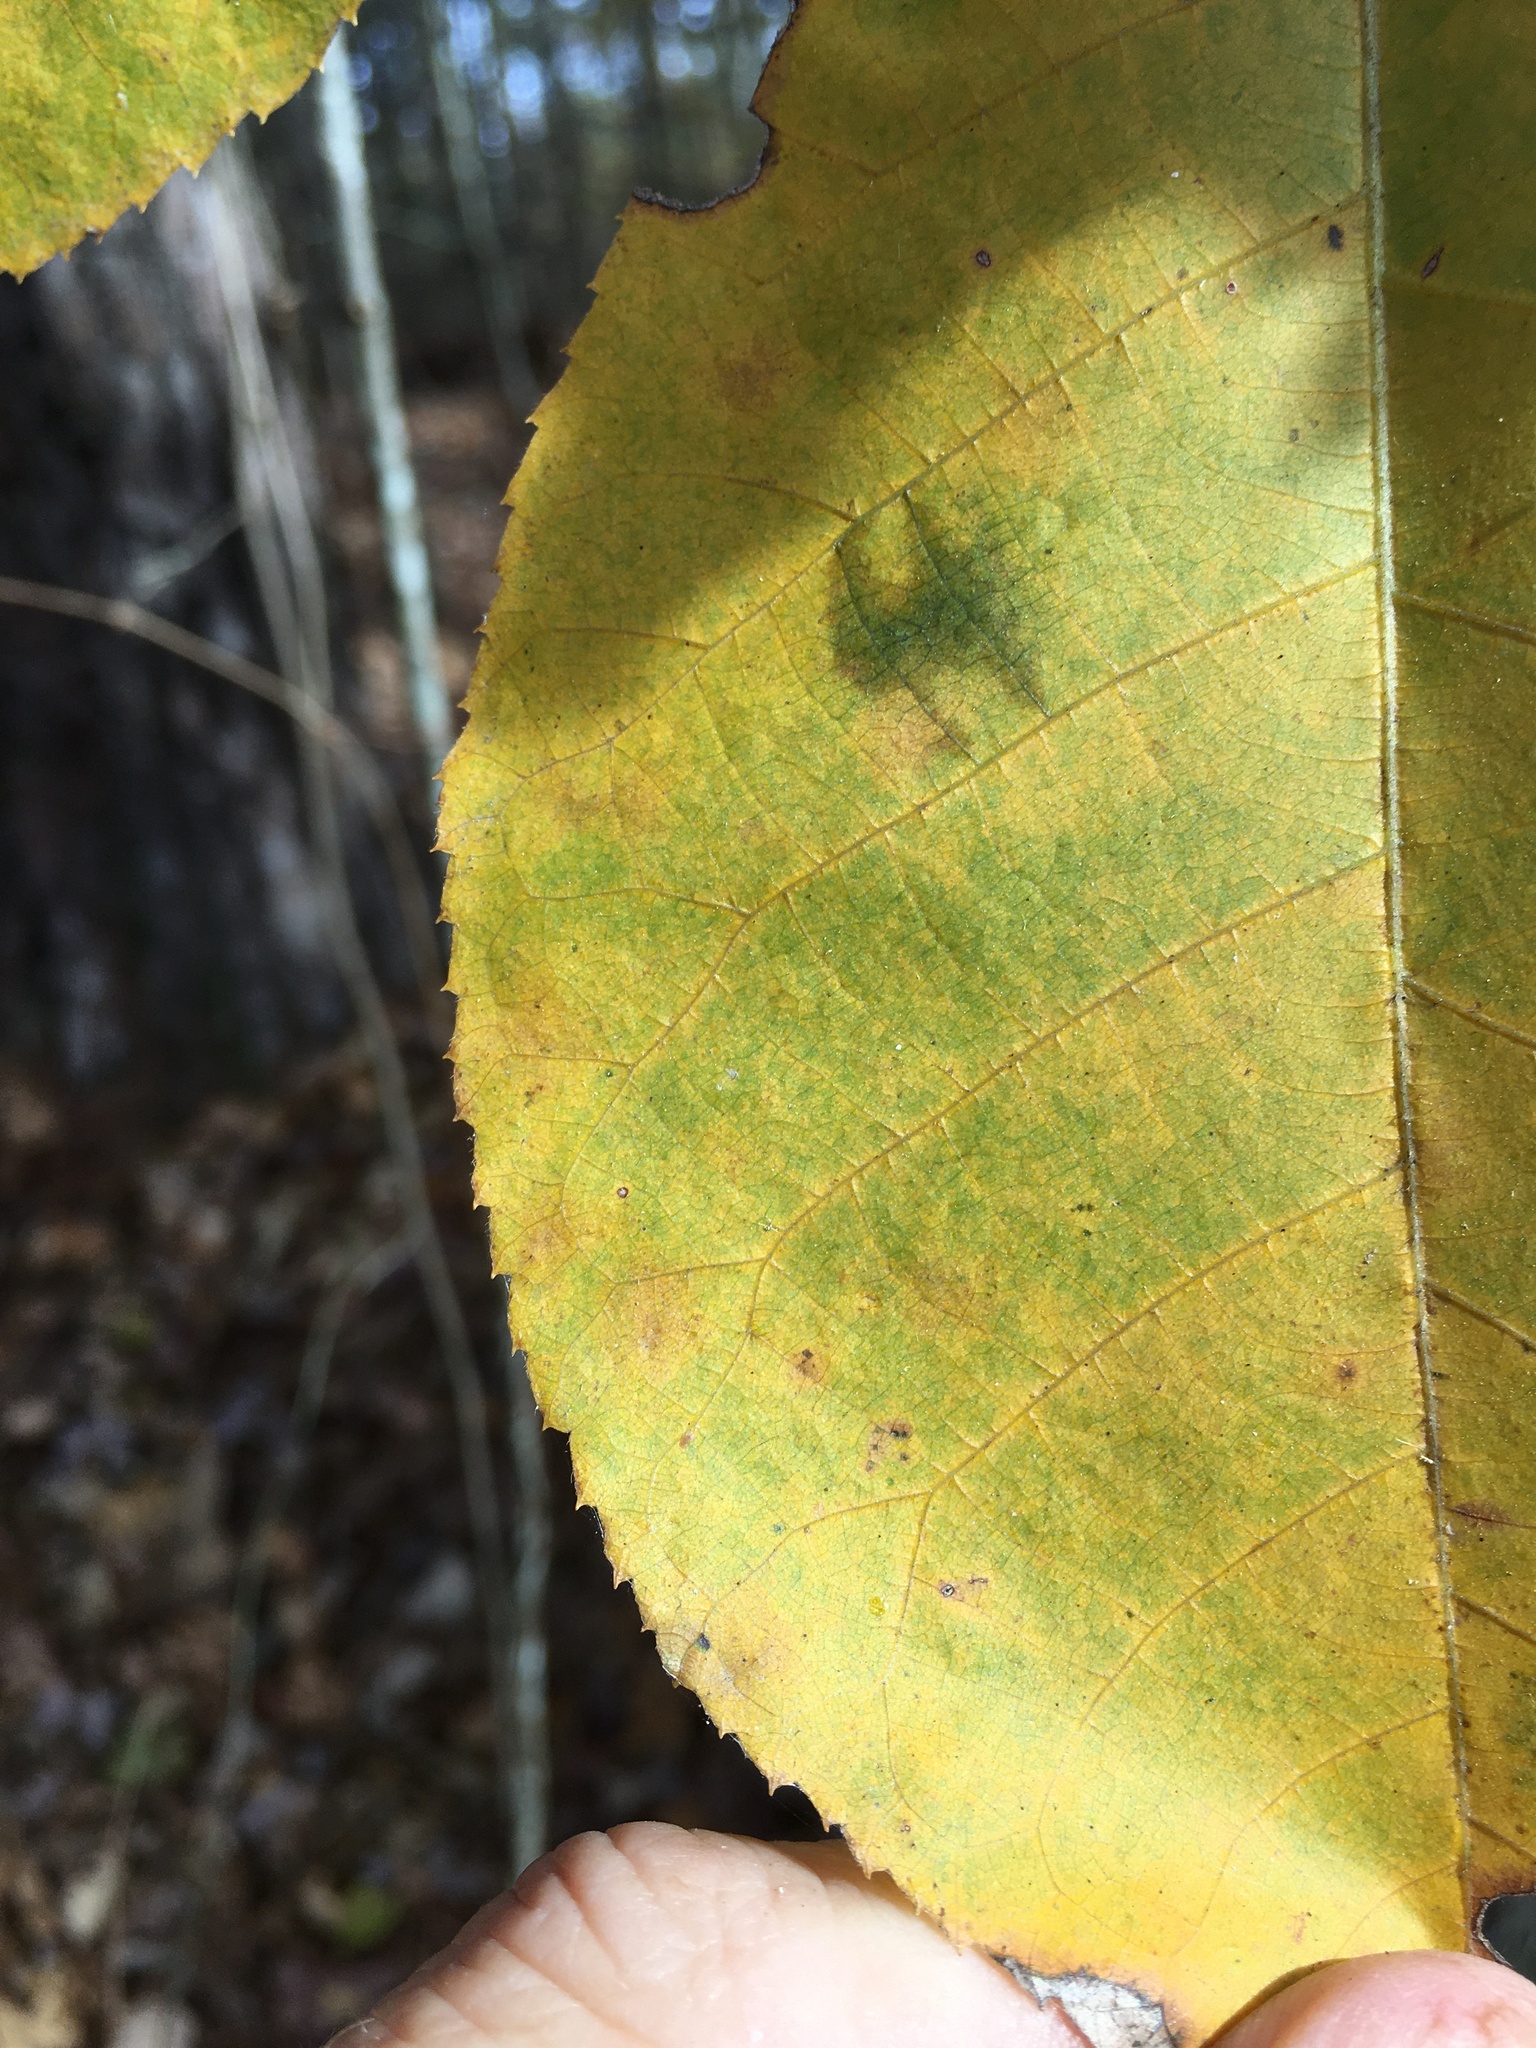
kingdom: Plantae
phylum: Tracheophyta
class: Magnoliopsida
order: Fagales
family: Juglandaceae
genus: Carya
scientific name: Carya glabra
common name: Pignut hickory
